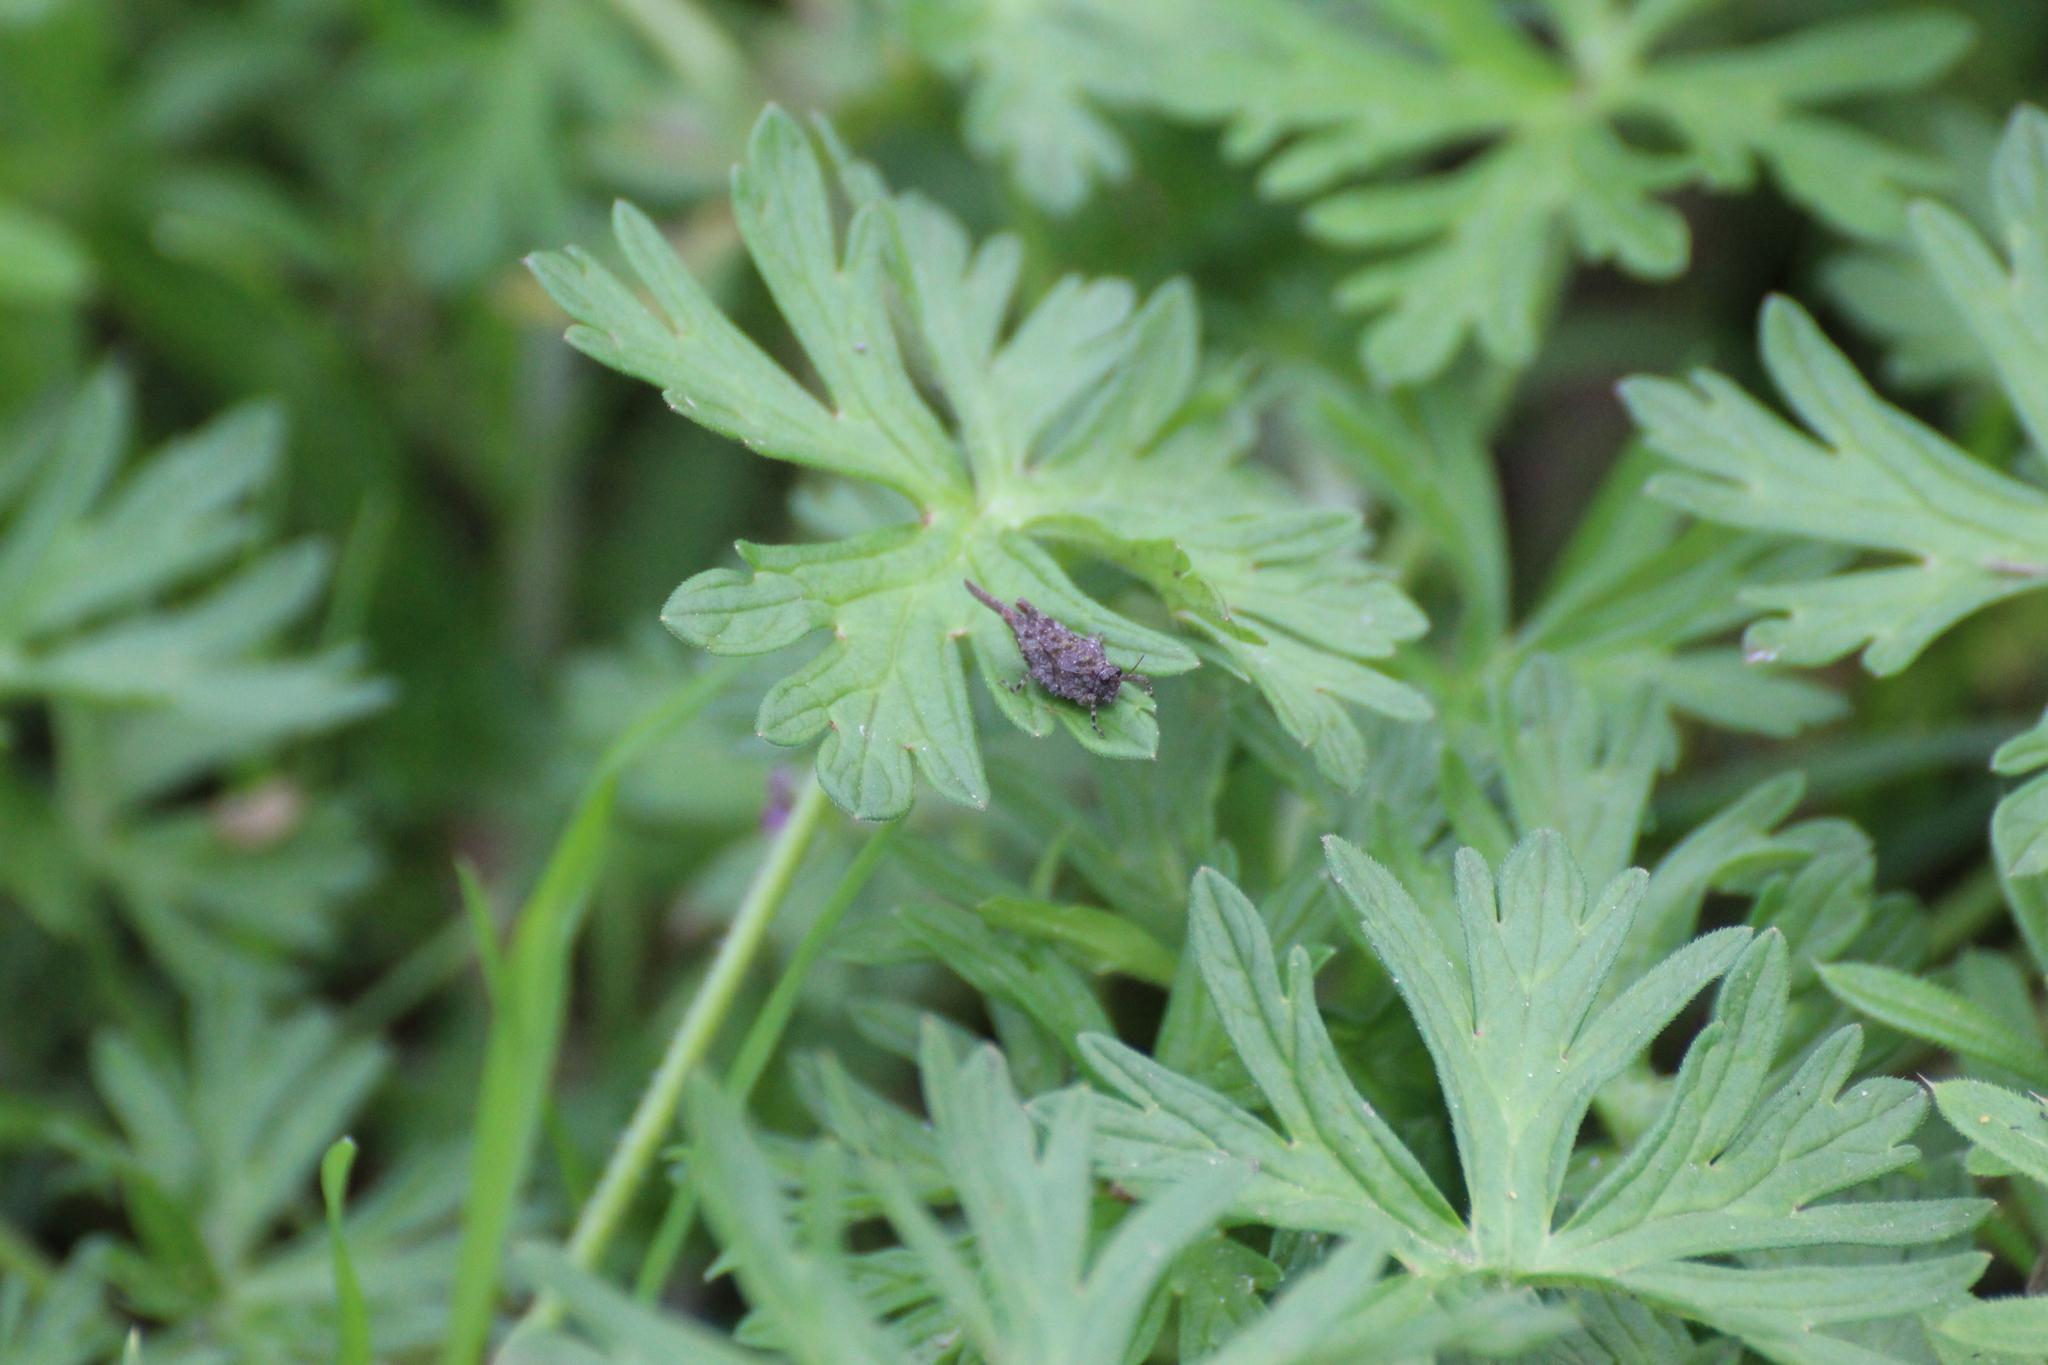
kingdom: Animalia
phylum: Arthropoda
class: Insecta
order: Orthoptera
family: Tetrigidae
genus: Paratettix
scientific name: Paratettix meridionalis
